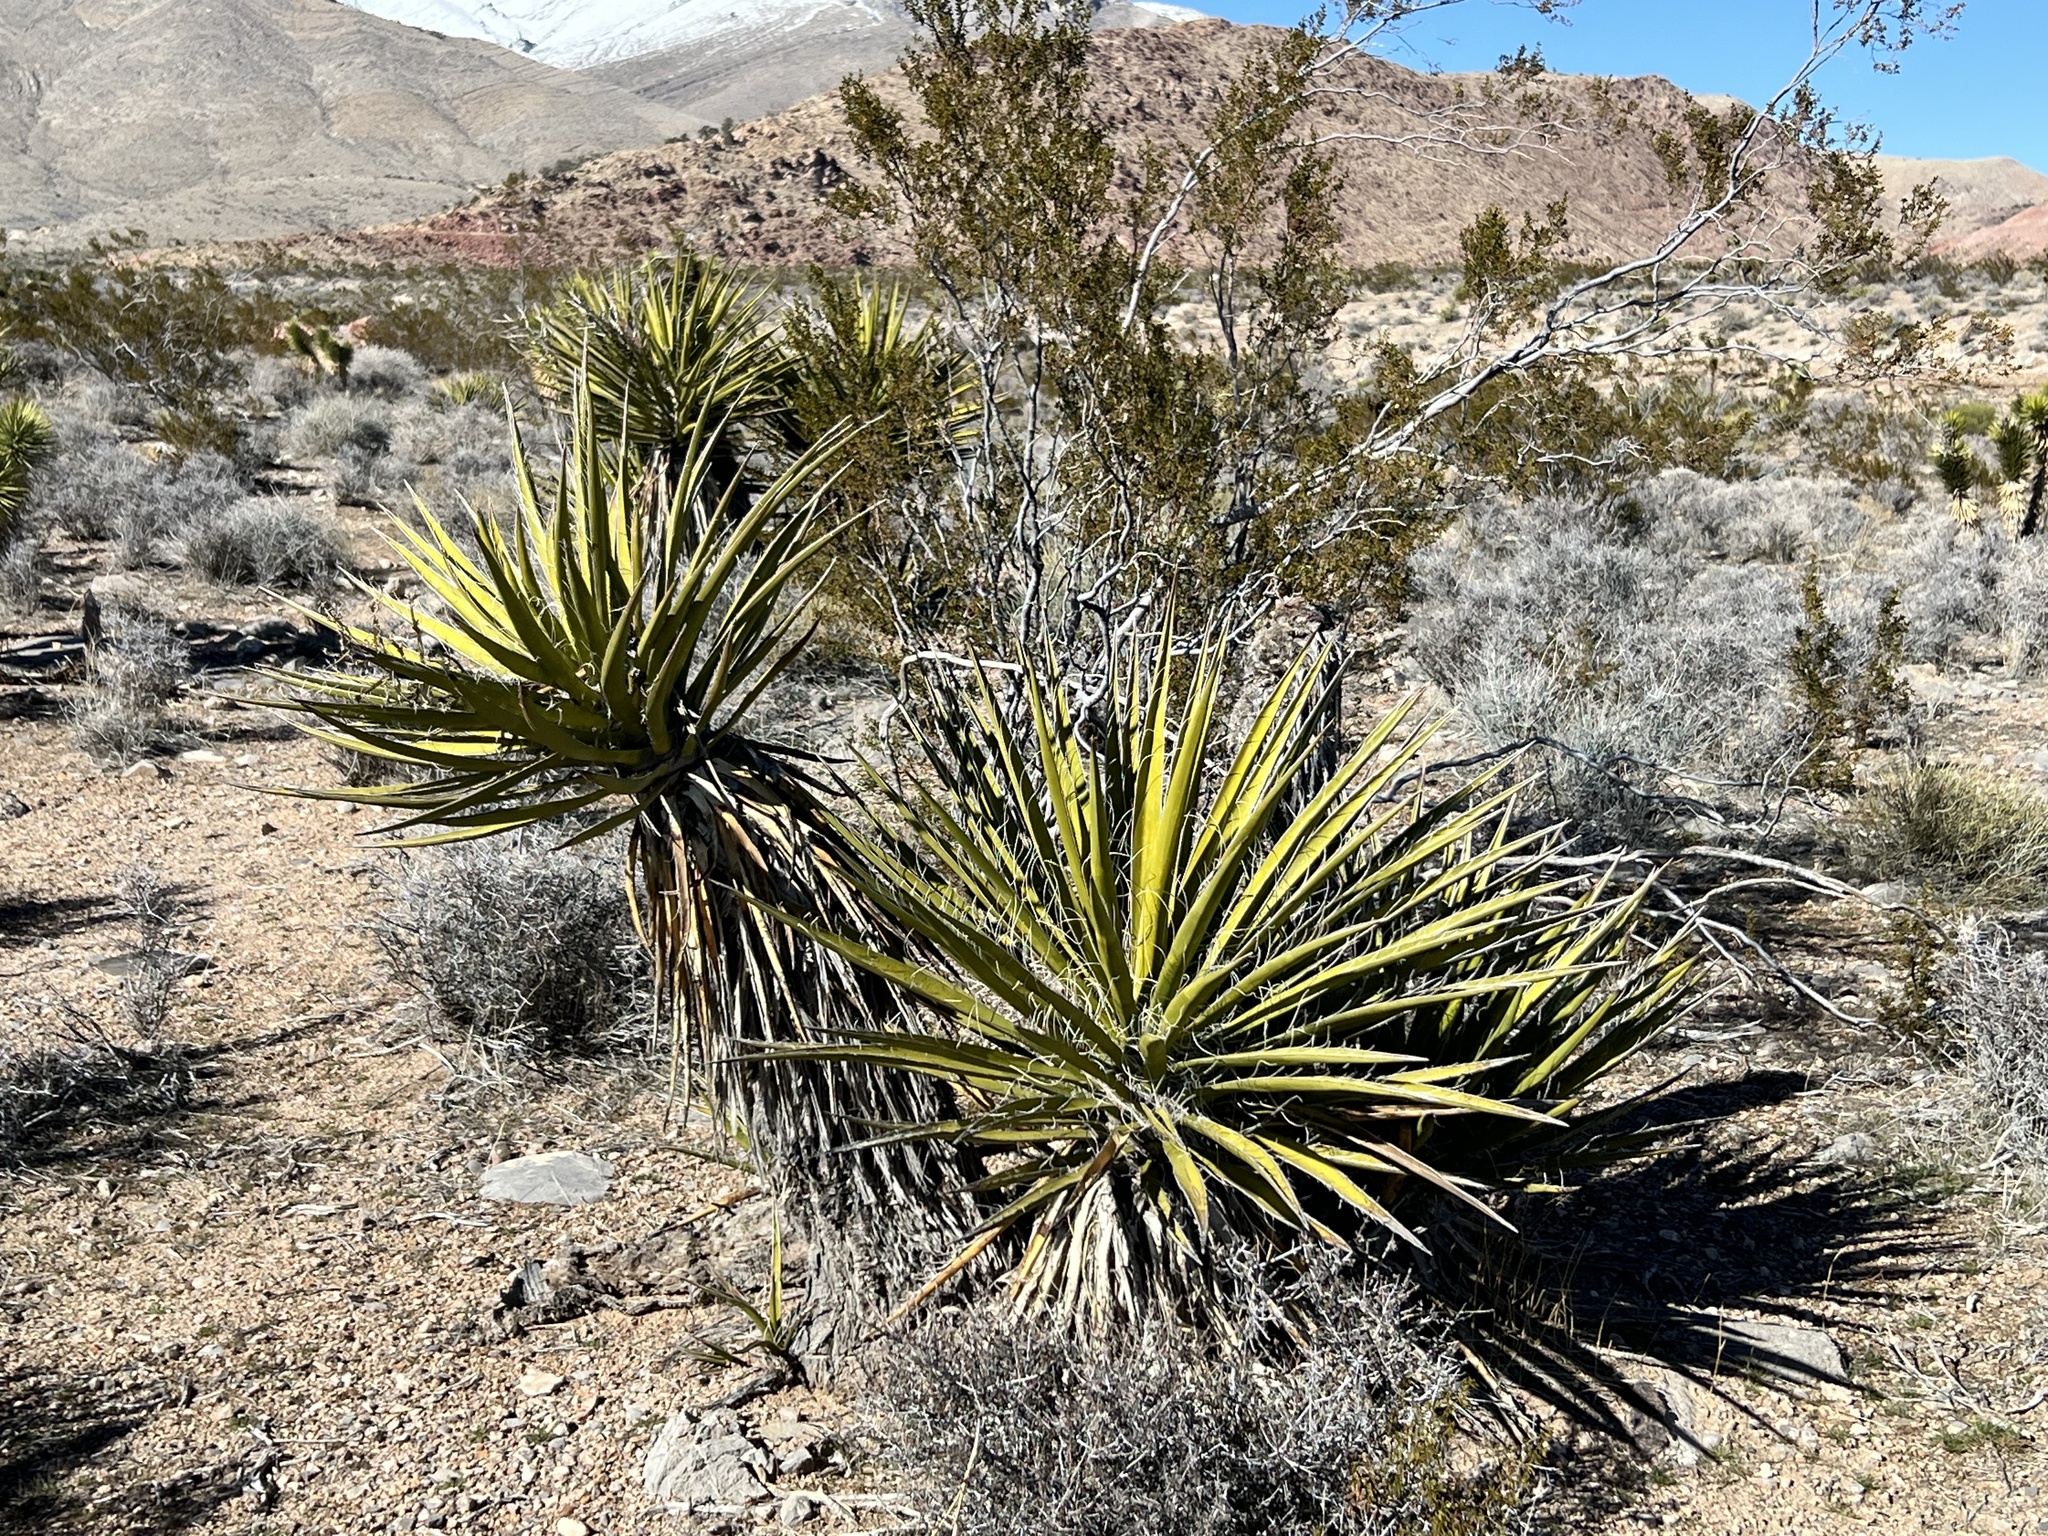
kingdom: Plantae
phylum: Tracheophyta
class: Liliopsida
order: Asparagales
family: Asparagaceae
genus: Yucca
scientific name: Yucca schidigera
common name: Mojave yucca
